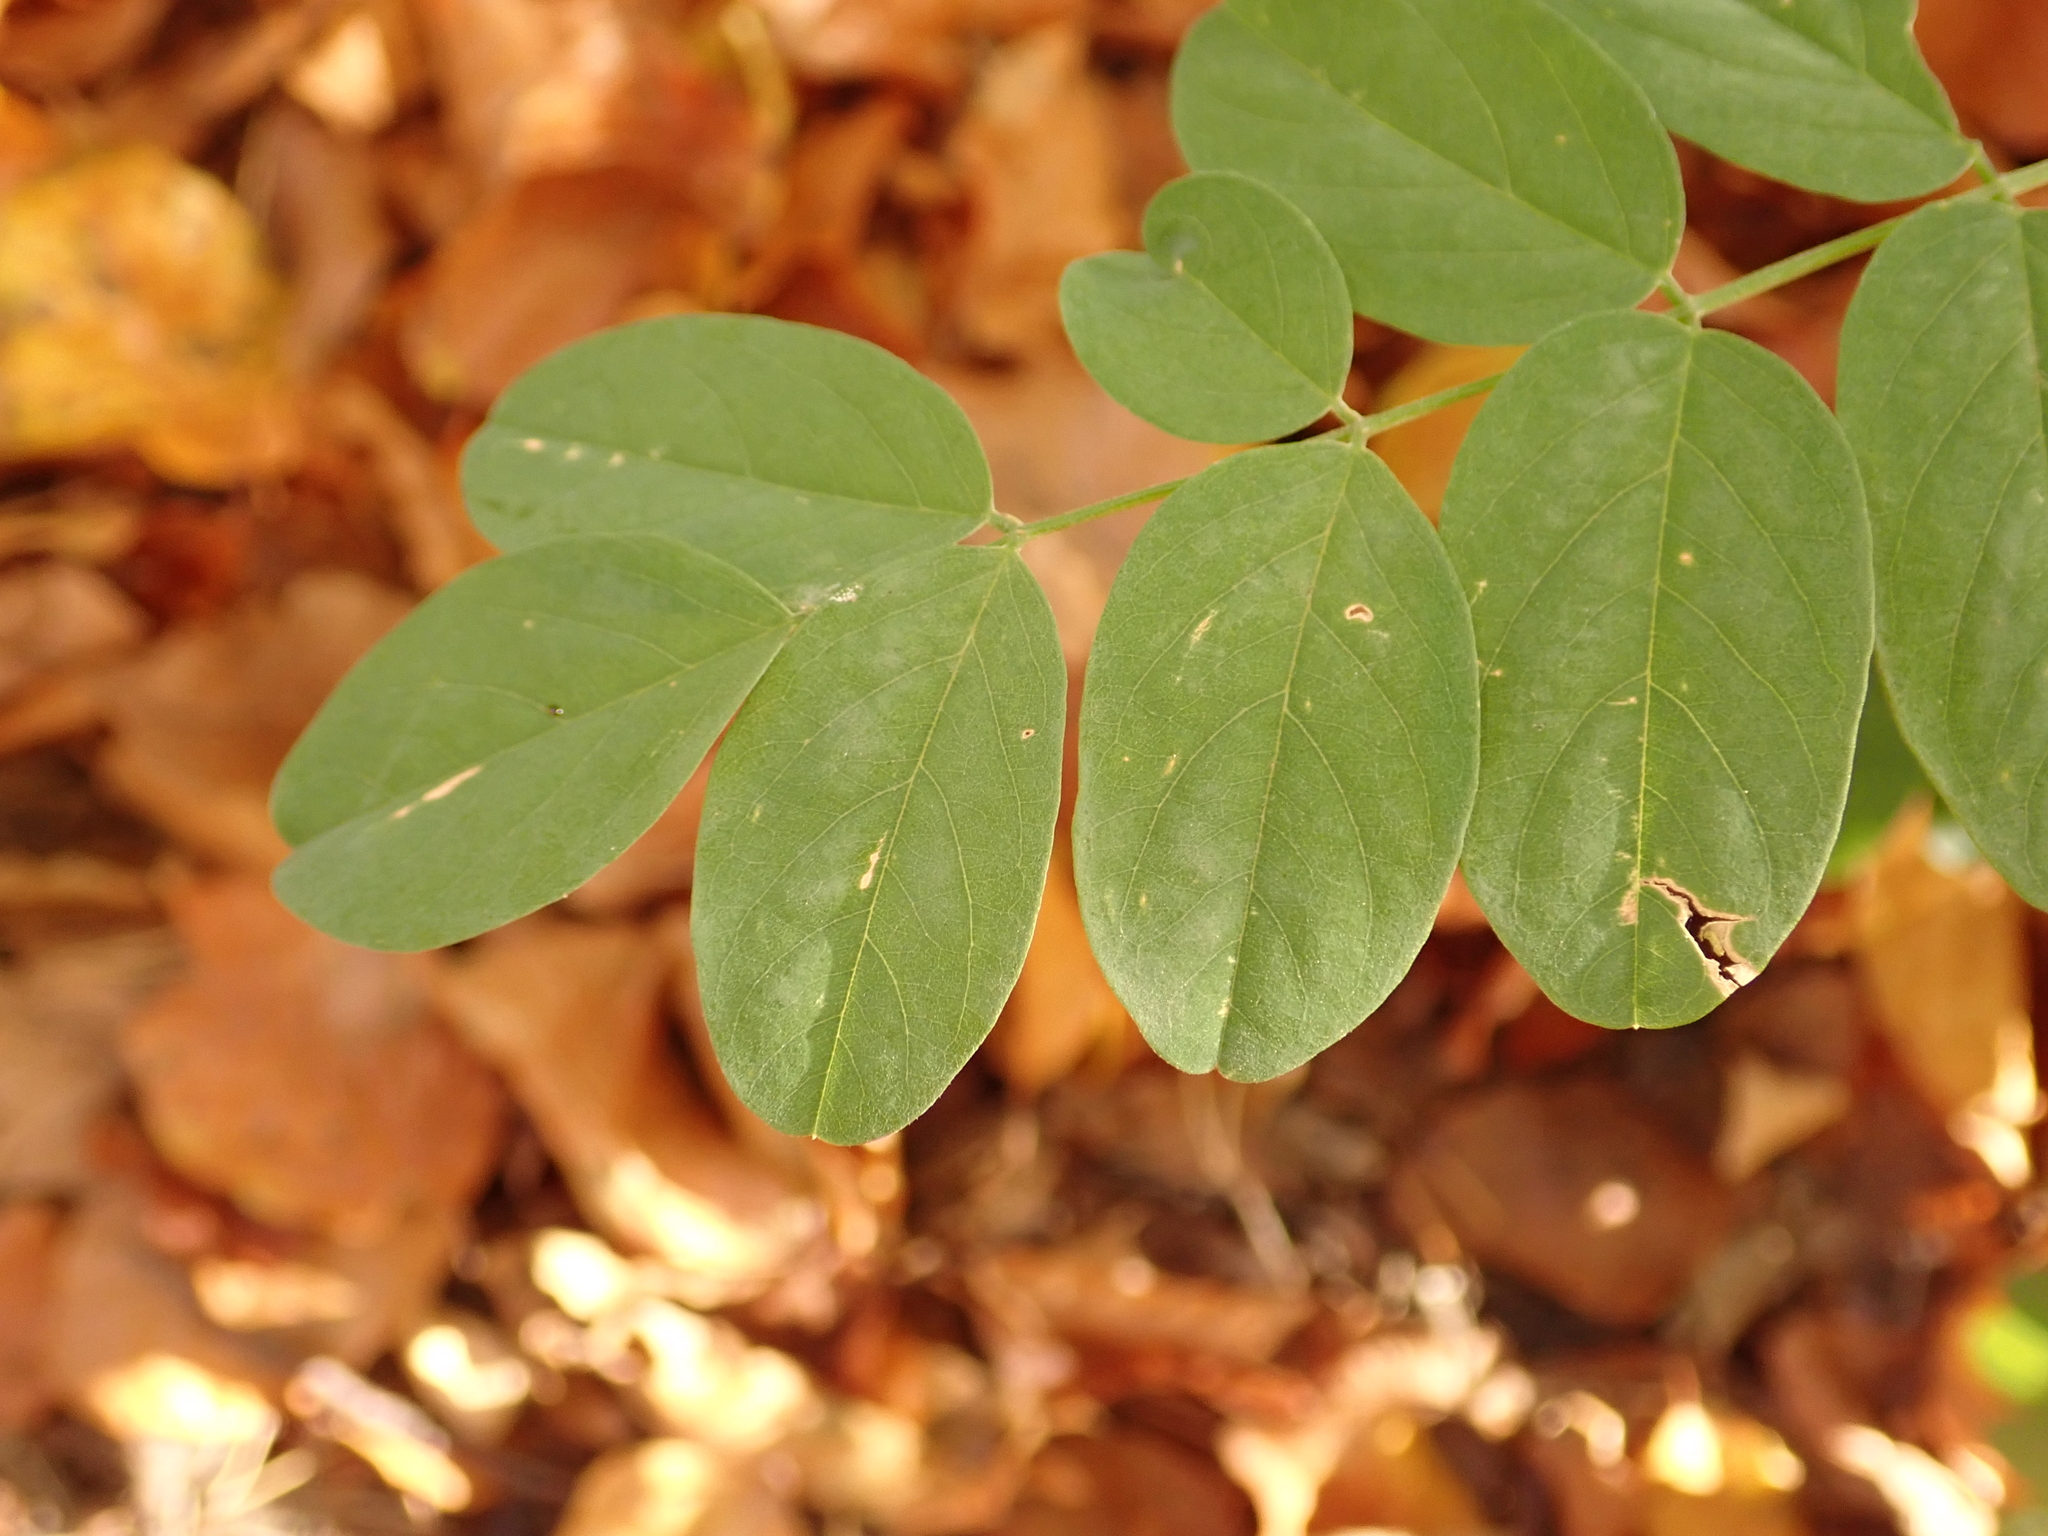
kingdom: Plantae
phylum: Tracheophyta
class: Magnoliopsida
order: Fabales
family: Fabaceae
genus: Robinia
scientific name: Robinia pseudoacacia
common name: Black locust
